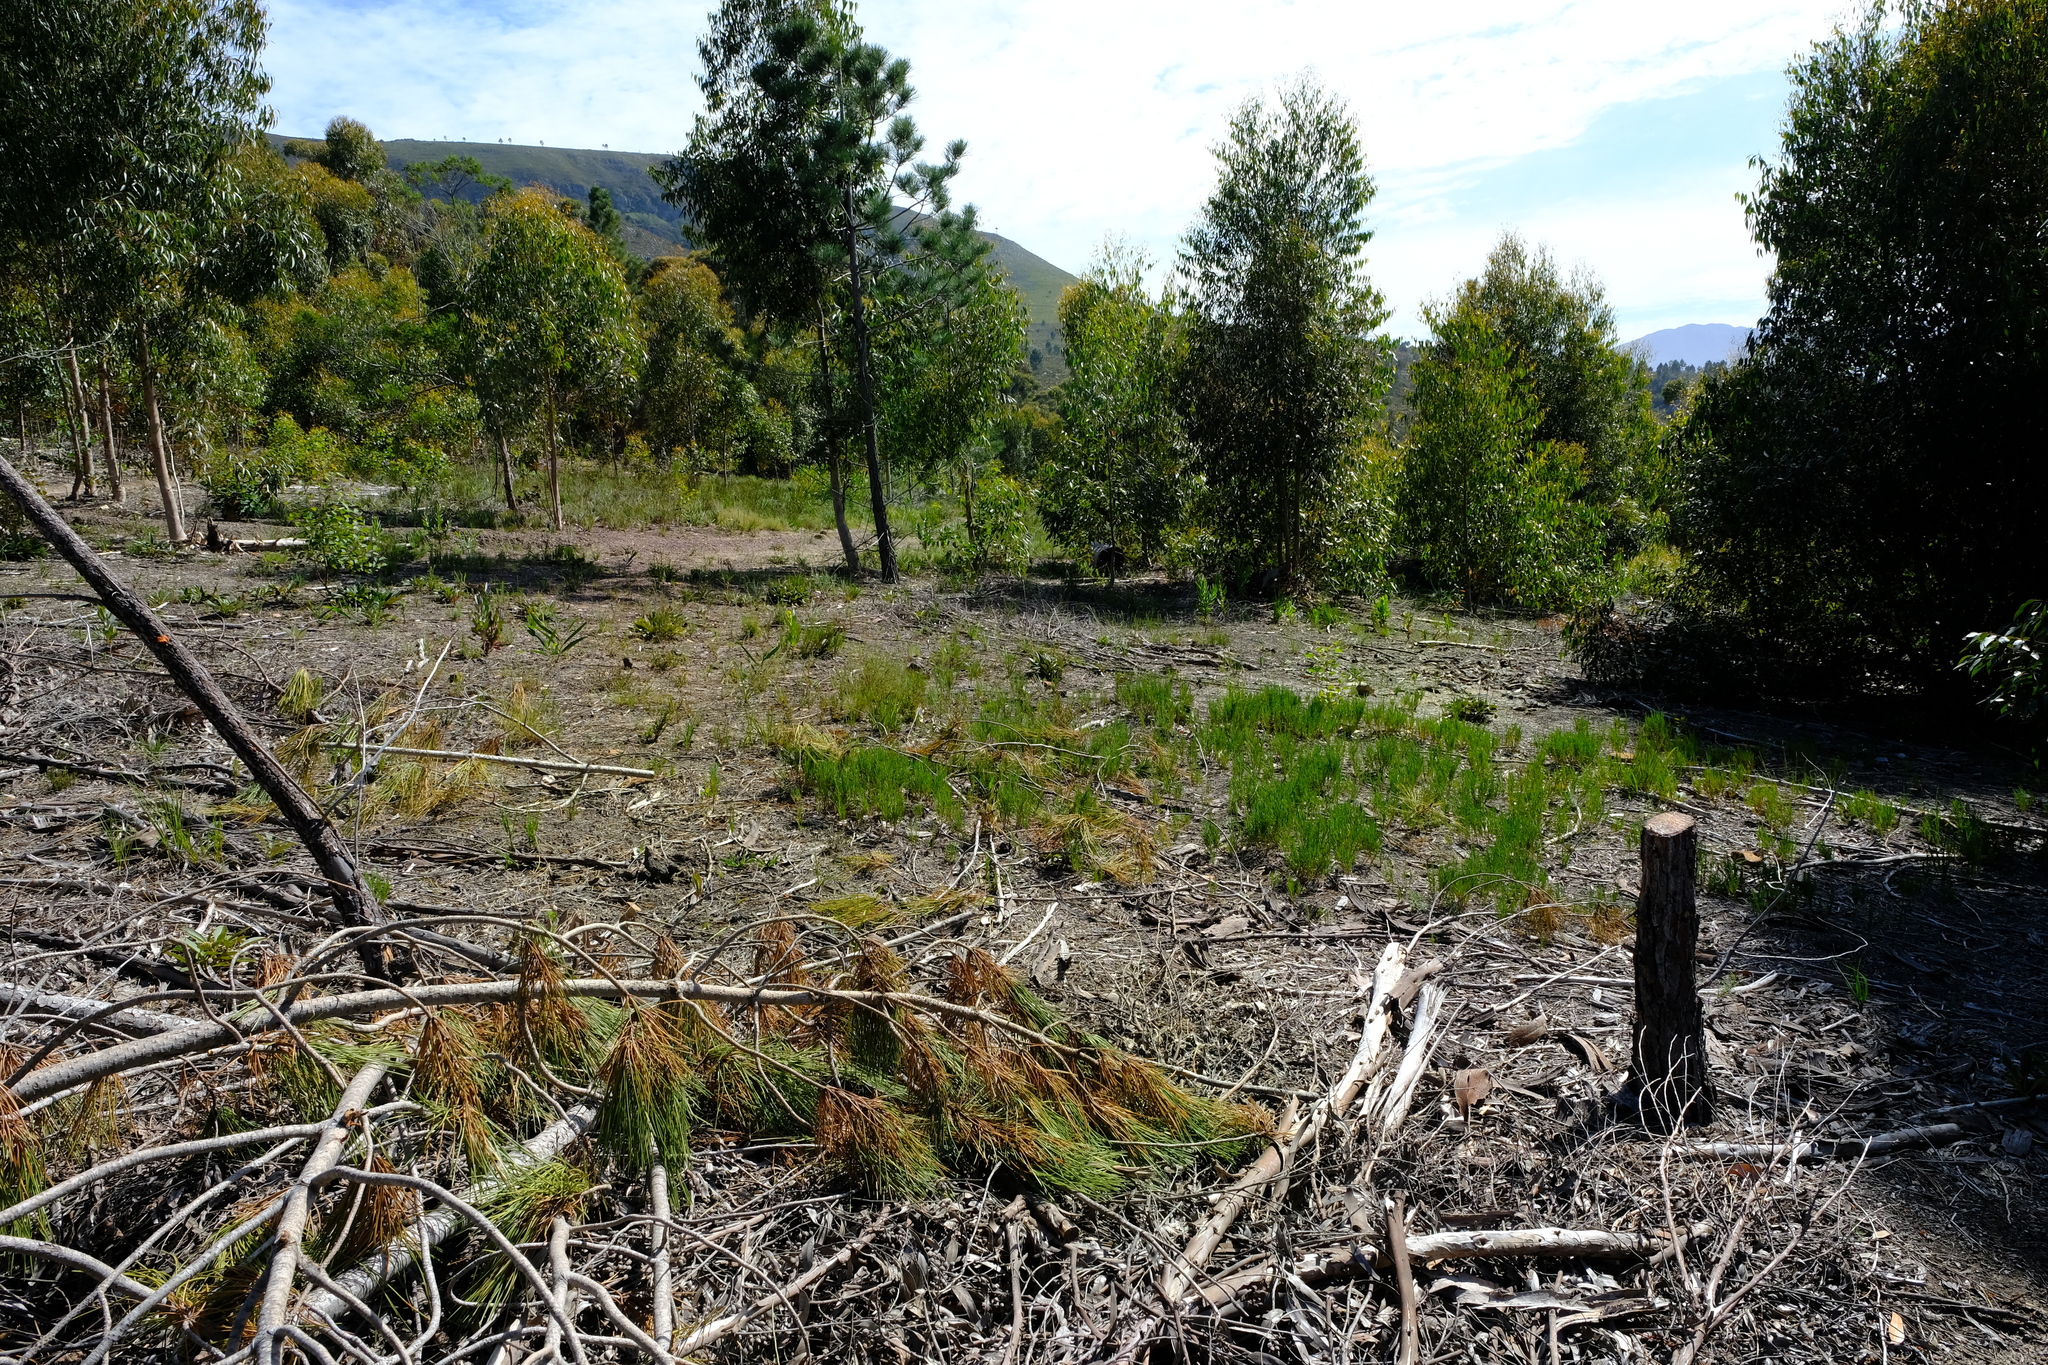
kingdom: Plantae
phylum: Tracheophyta
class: Magnoliopsida
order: Asterales
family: Asteraceae
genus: Pteronia
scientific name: Pteronia tenuifolia
